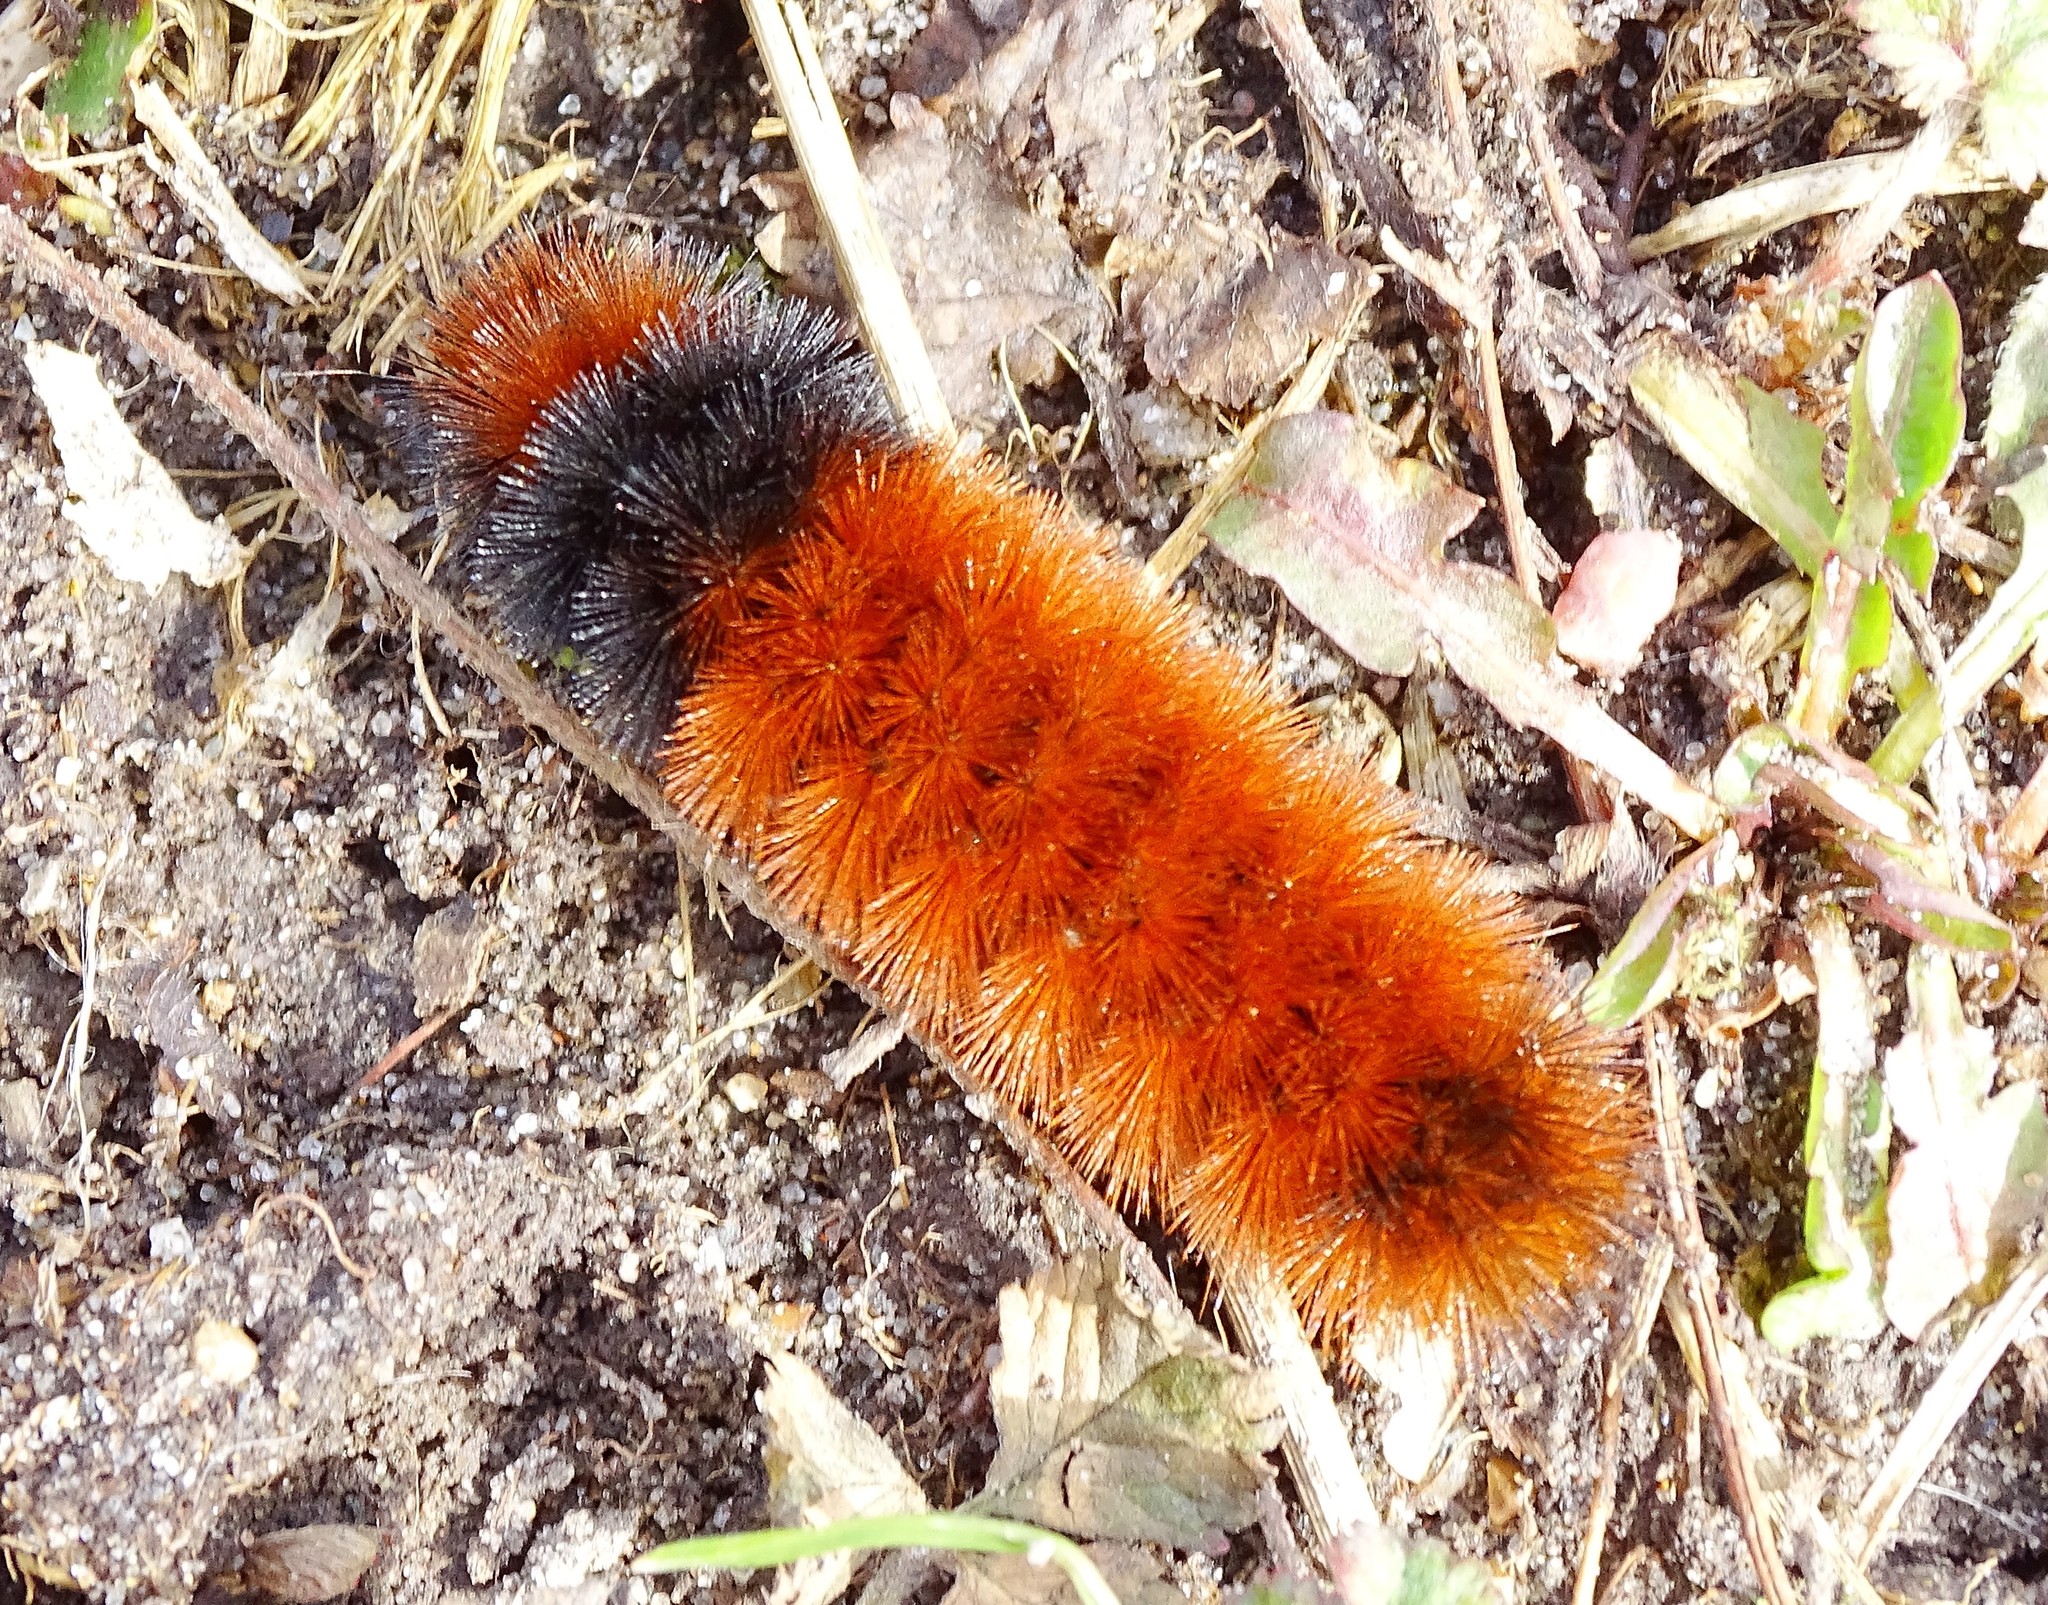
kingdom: Animalia
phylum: Arthropoda
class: Insecta
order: Lepidoptera
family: Erebidae
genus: Pyrrharctia
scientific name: Pyrrharctia isabella
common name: Isabella tiger moth
